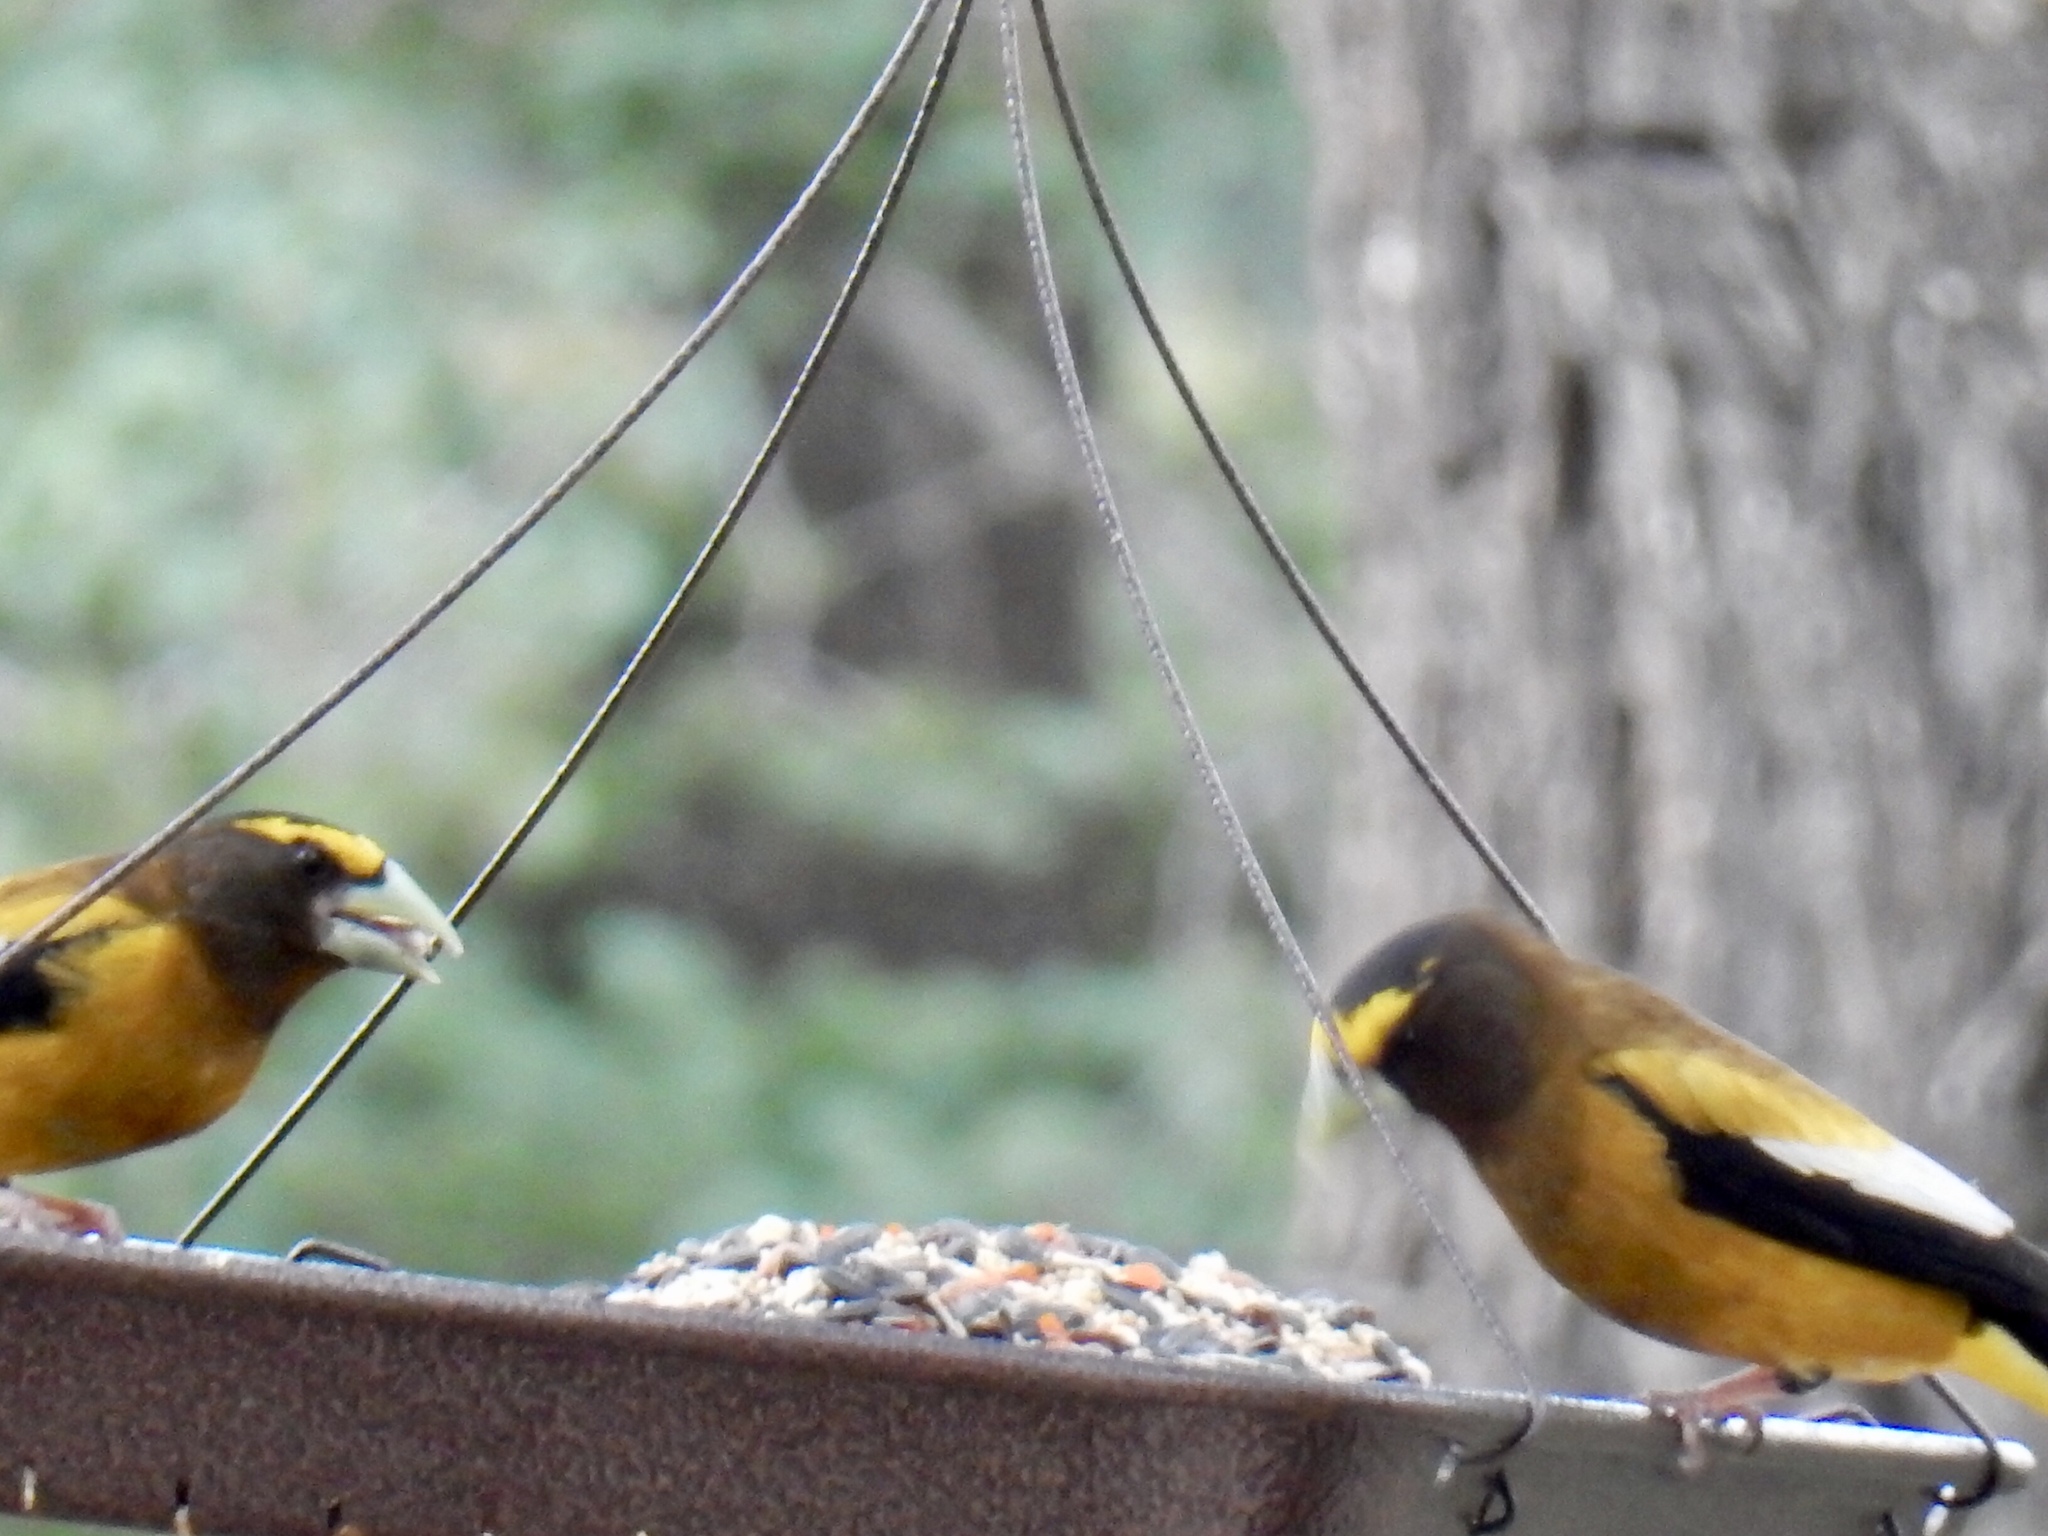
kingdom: Animalia
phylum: Chordata
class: Aves
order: Passeriformes
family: Fringillidae
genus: Hesperiphona
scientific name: Hesperiphona vespertina
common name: Evening grosbeak
